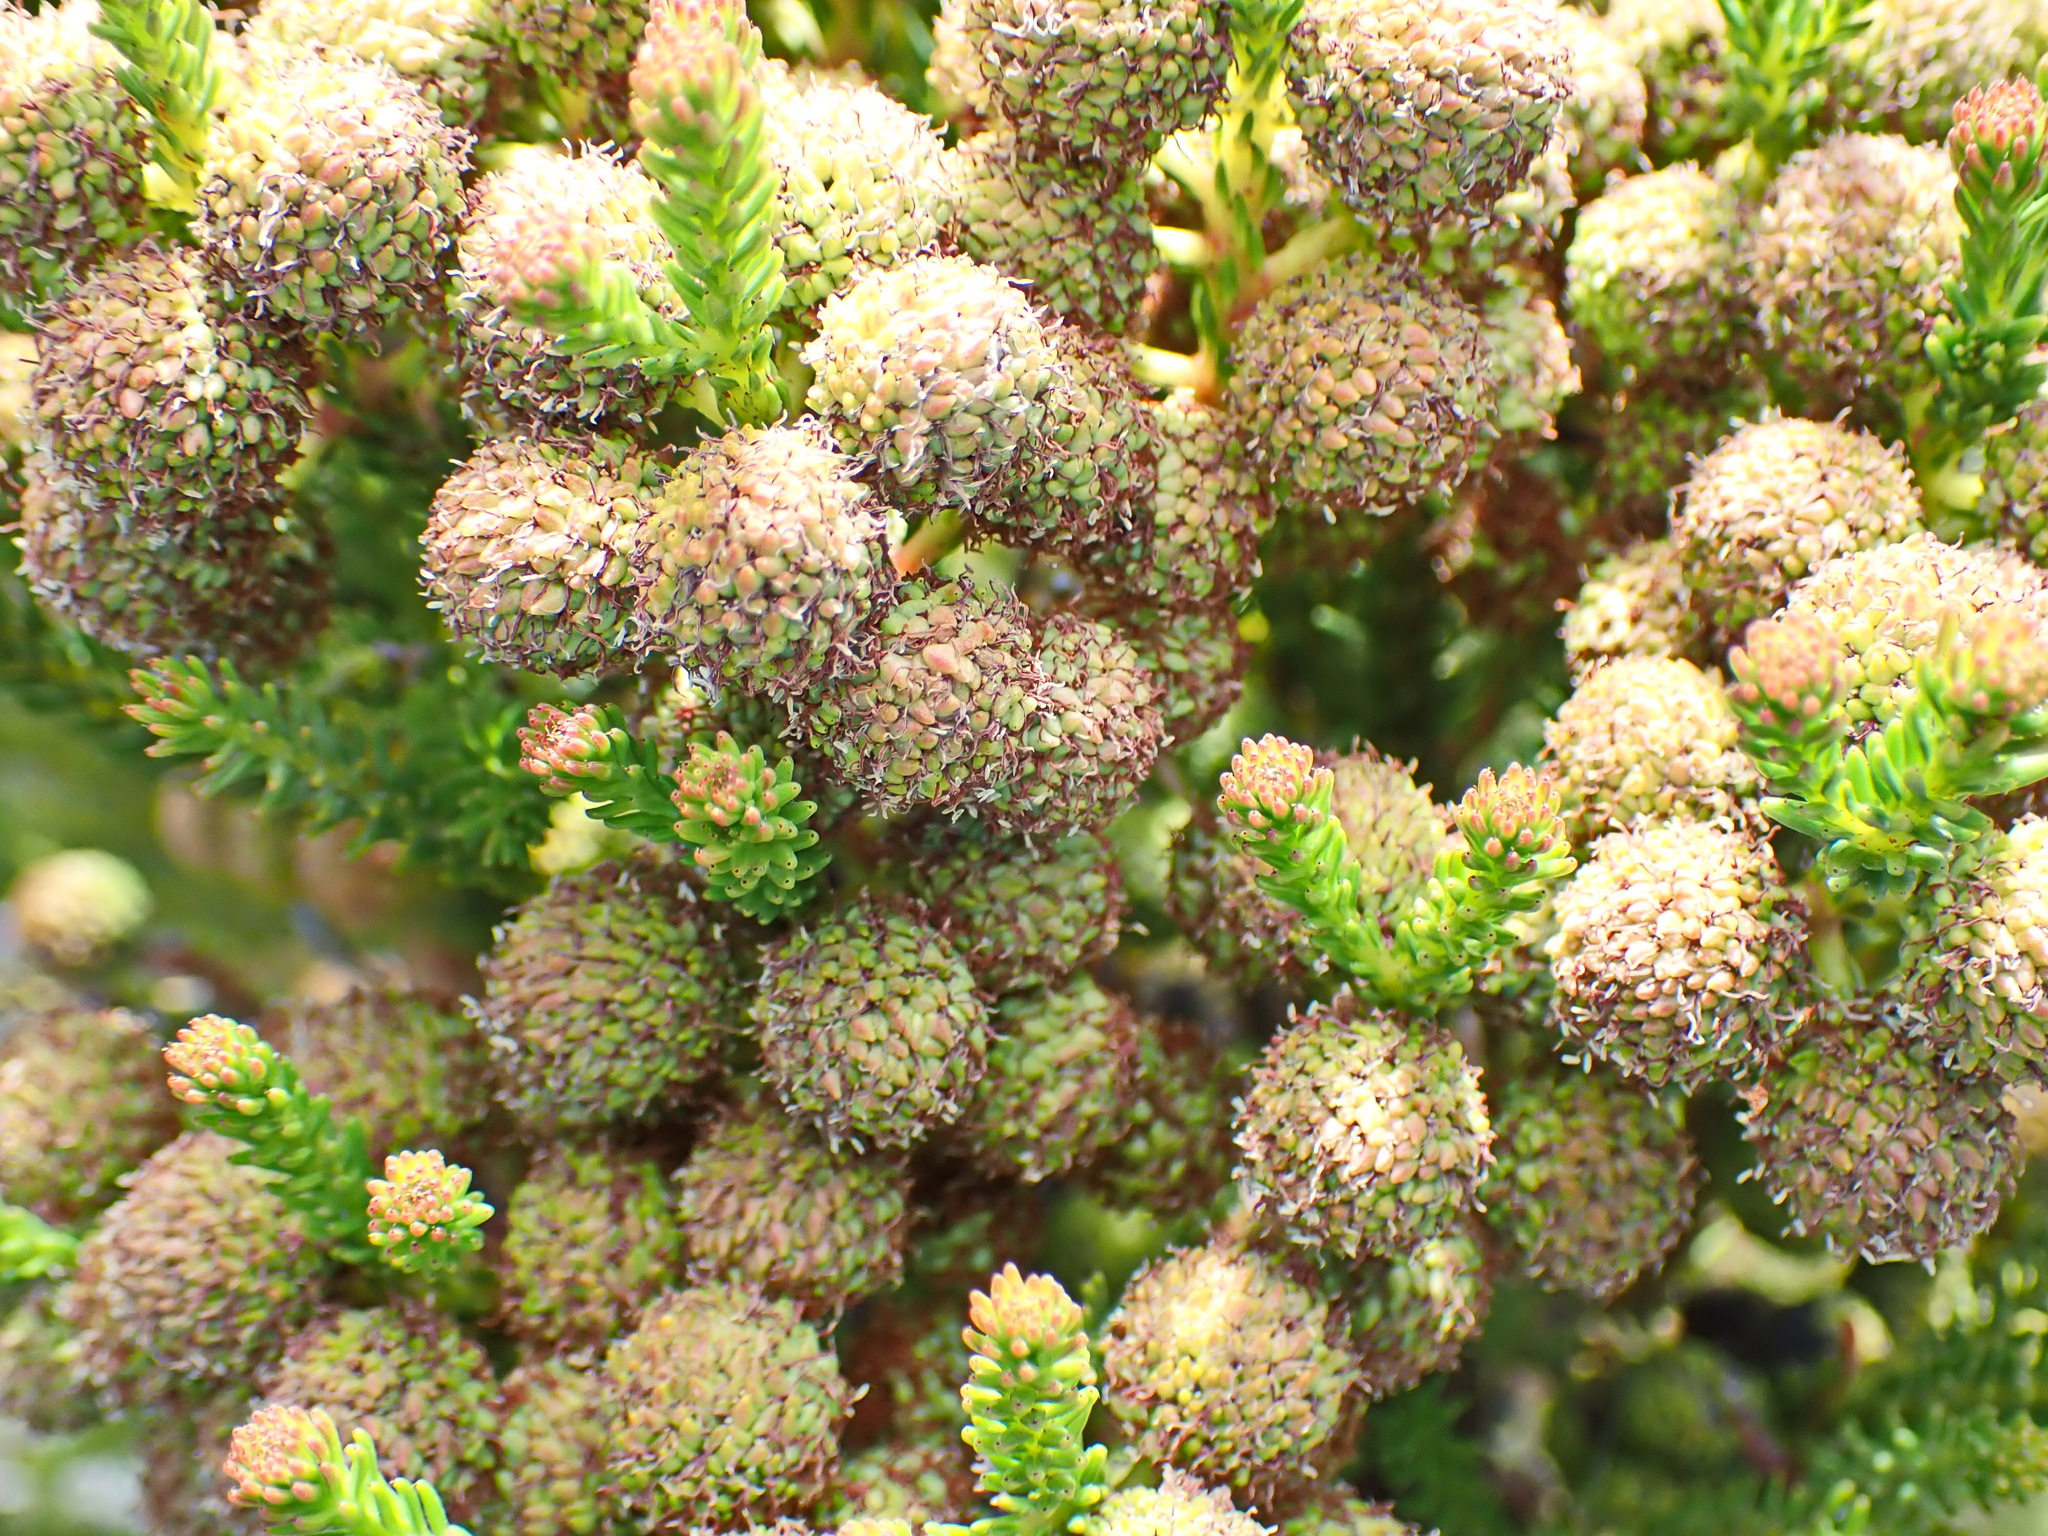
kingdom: Plantae
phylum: Tracheophyta
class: Magnoliopsida
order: Bruniales
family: Bruniaceae
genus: Berzelia
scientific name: Berzelia intermedia
